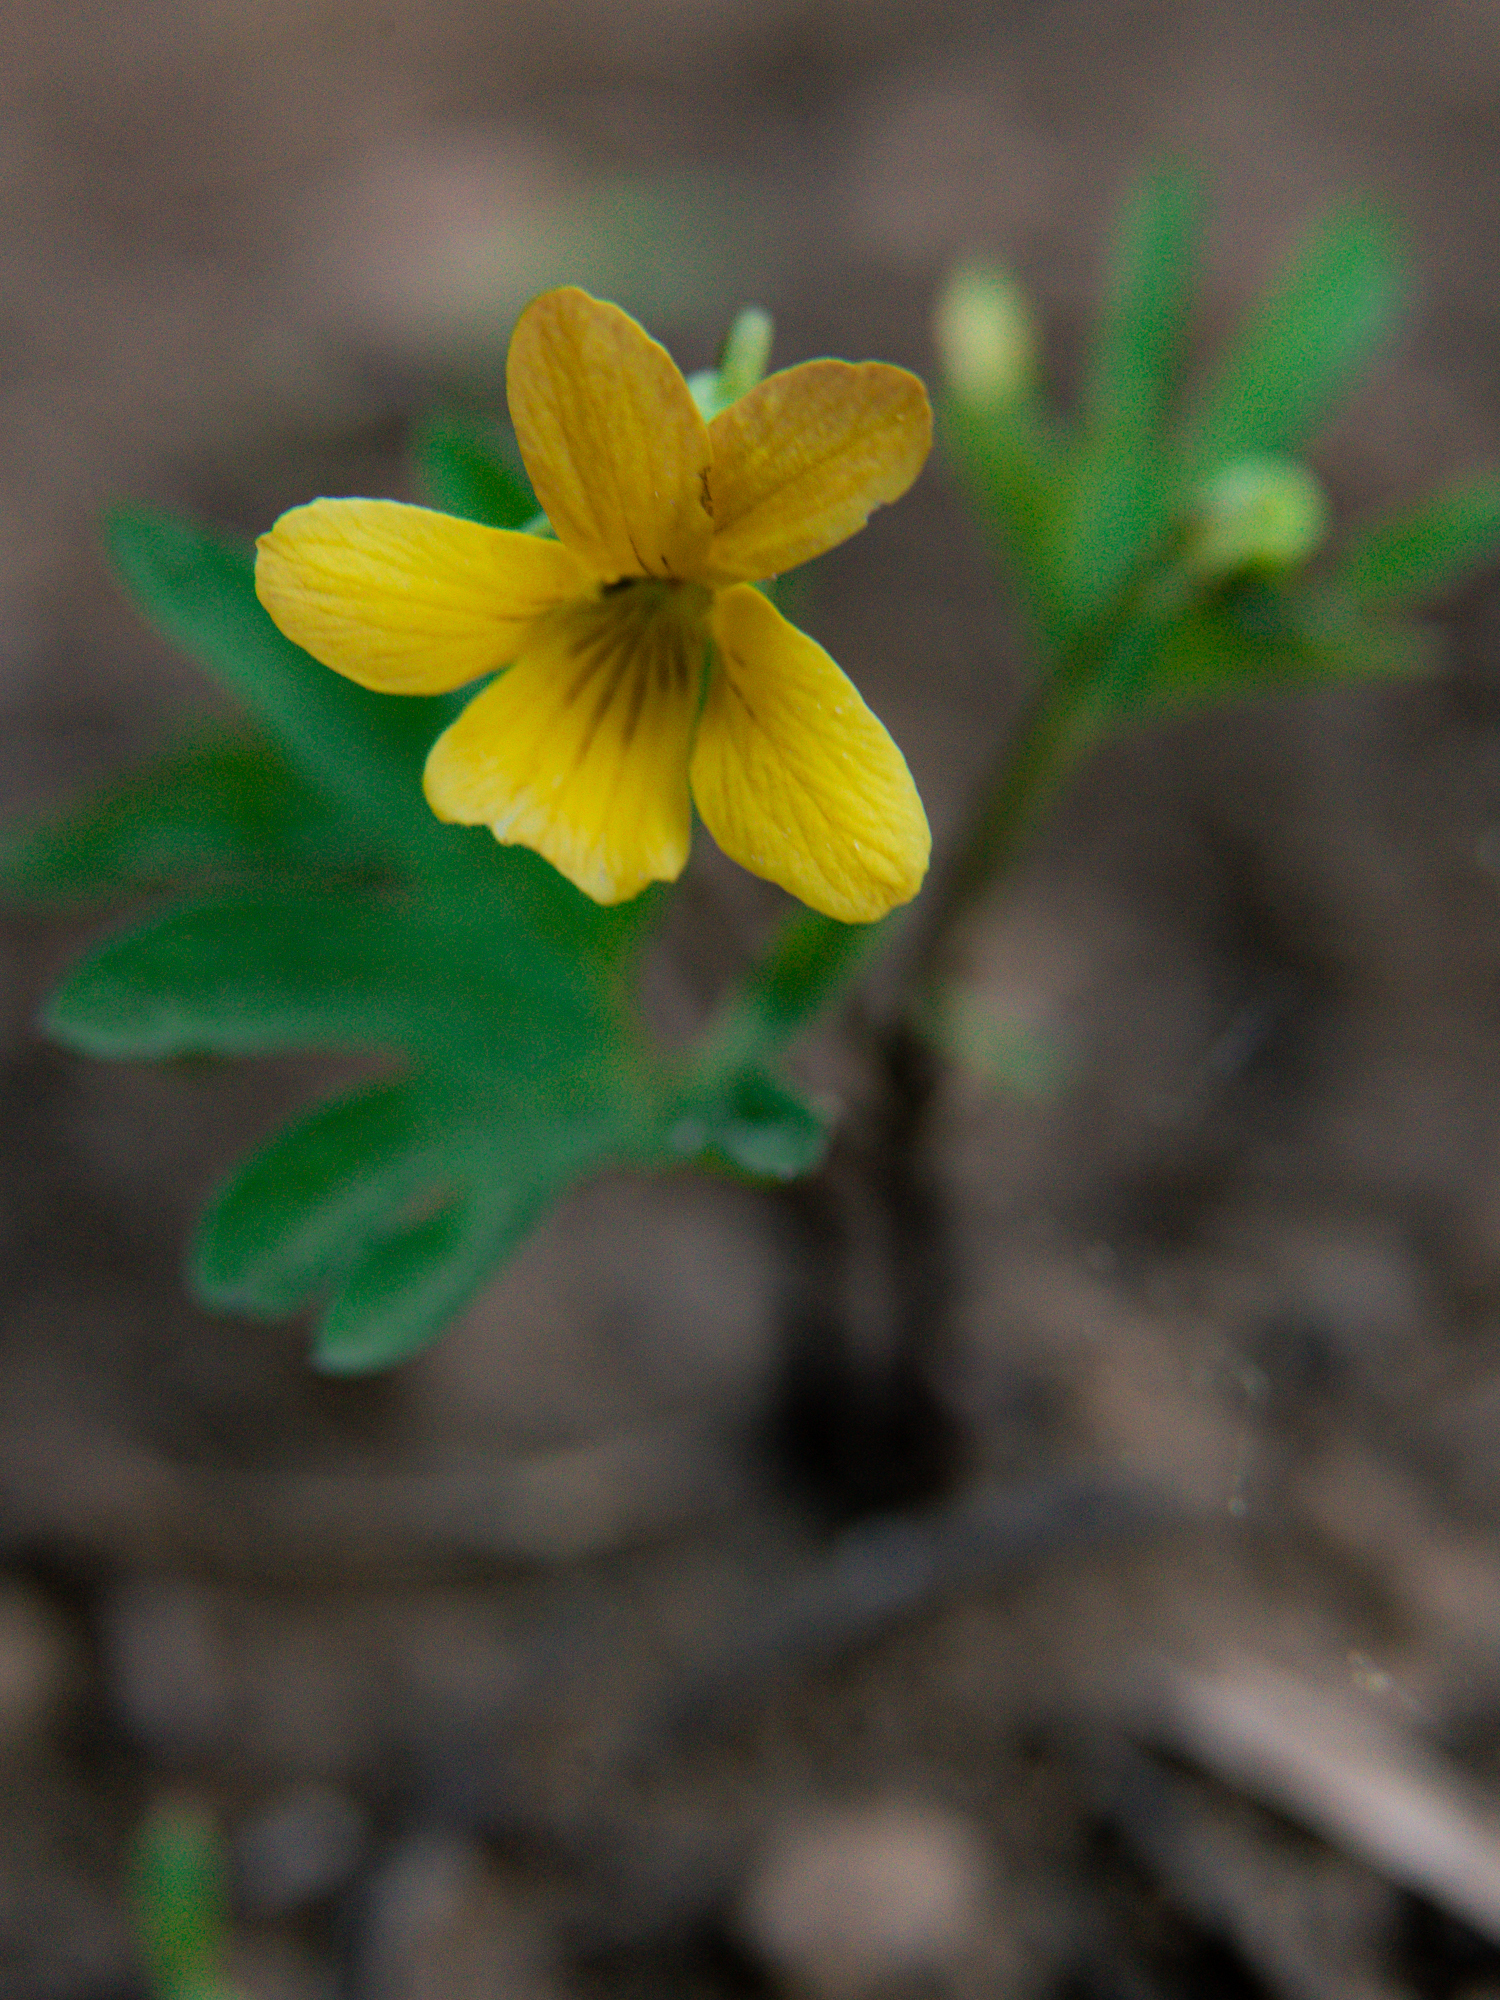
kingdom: Plantae
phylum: Tracheophyta
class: Magnoliopsida
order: Malpighiales
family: Violaceae
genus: Viola
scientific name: Viola lobata
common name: Pine violet
